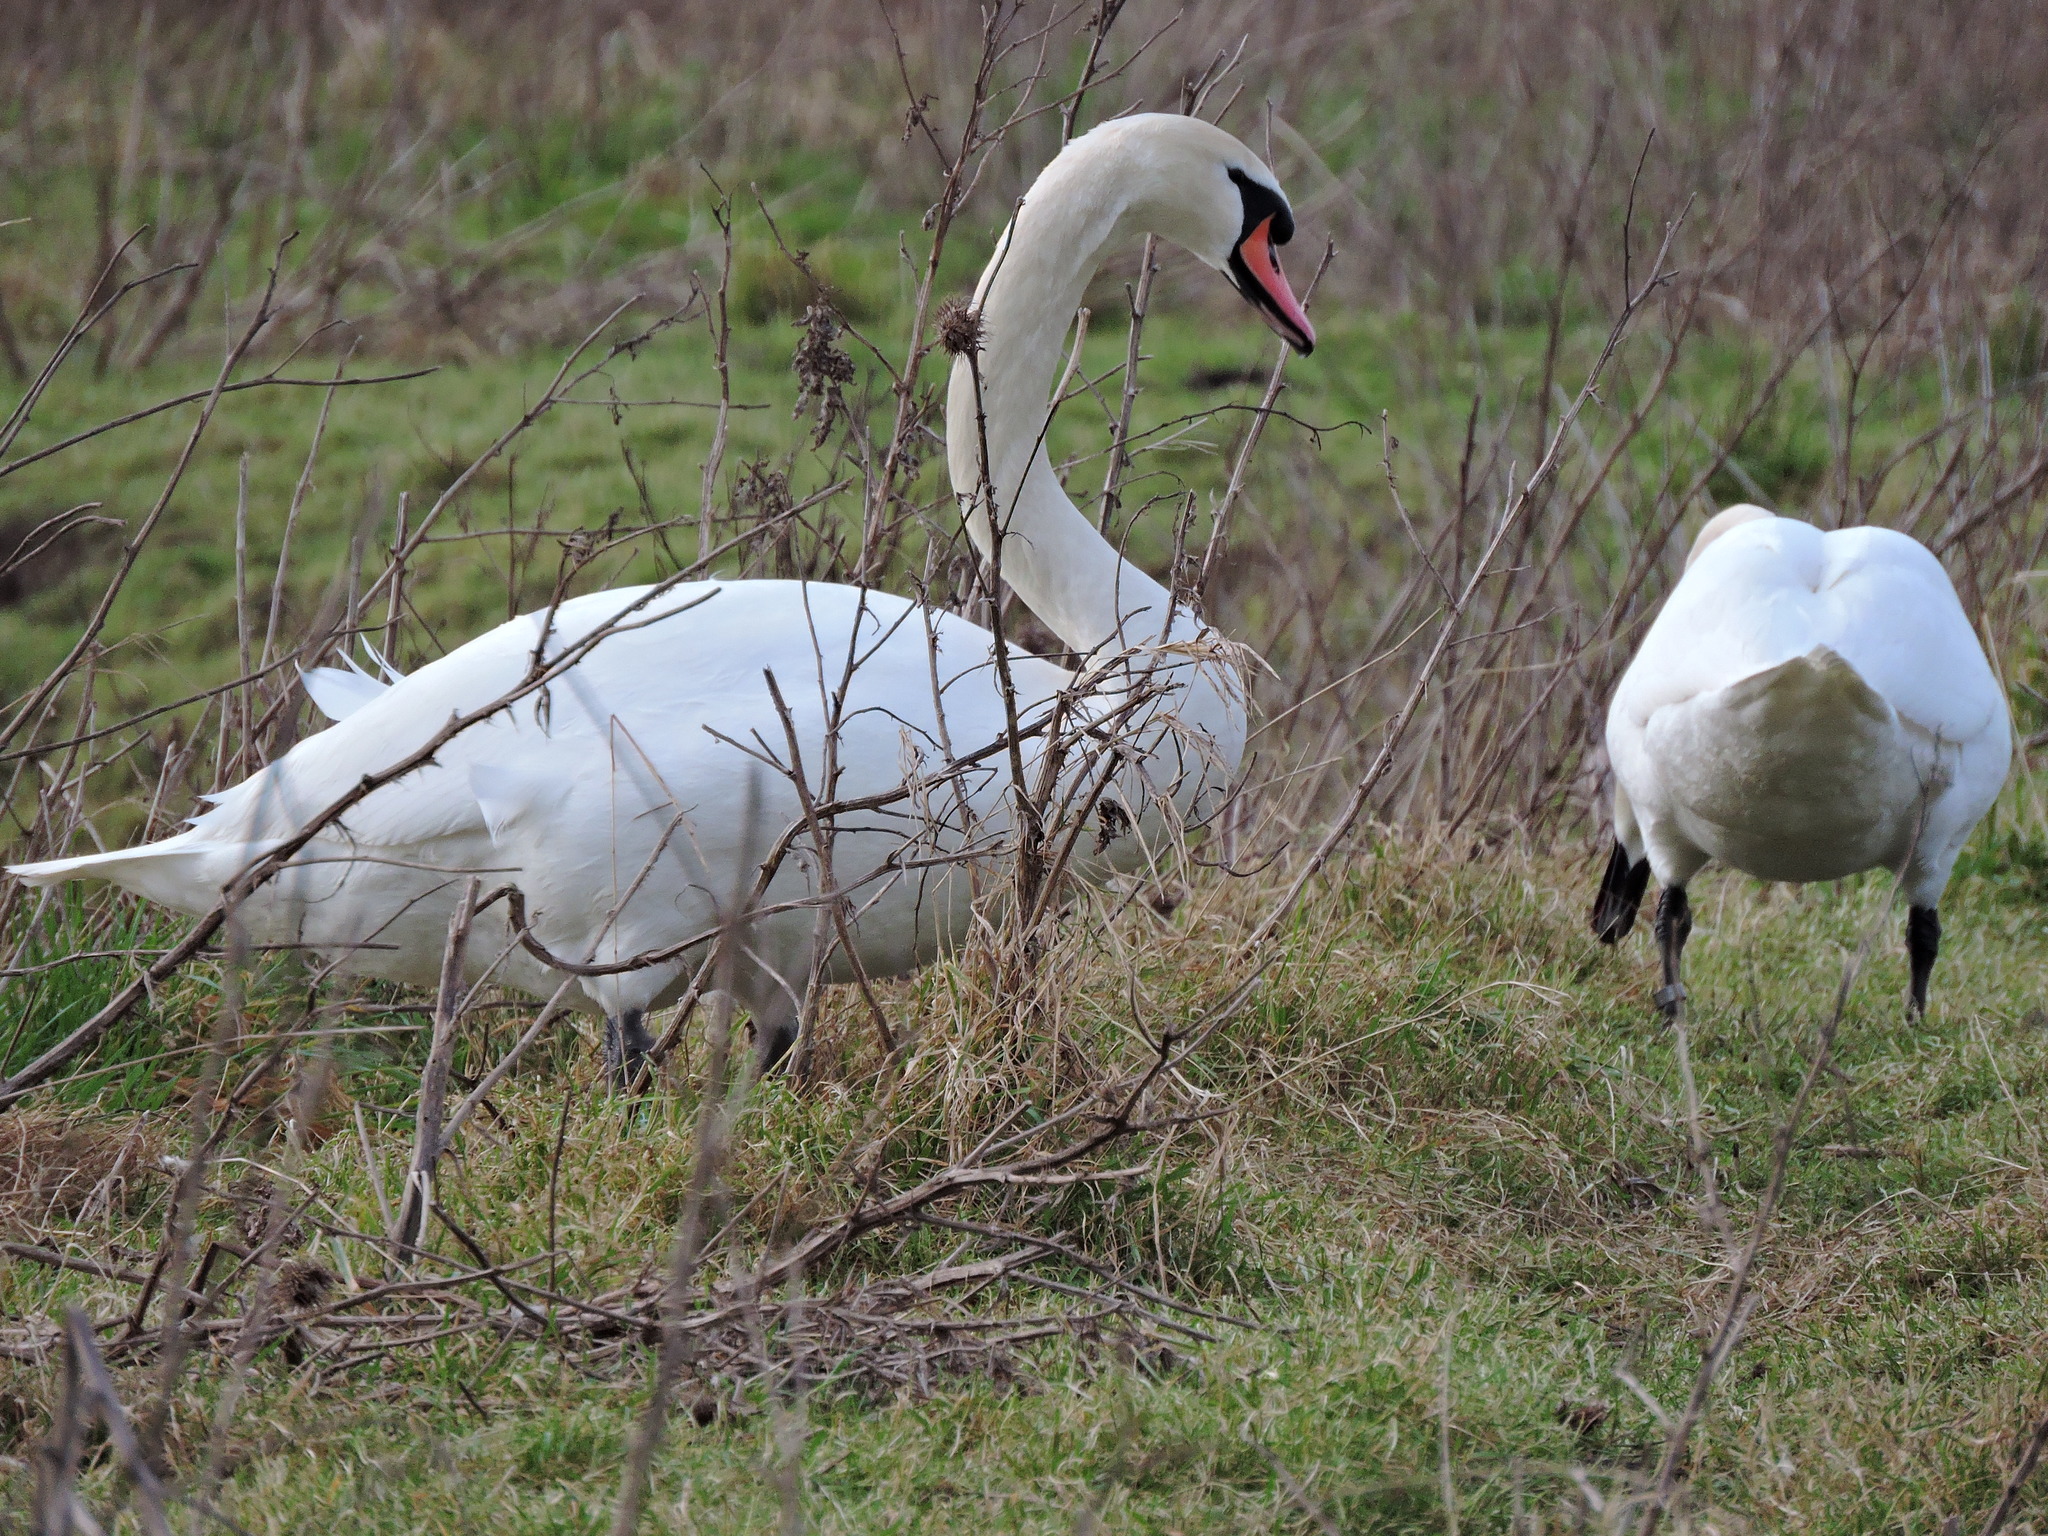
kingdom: Animalia
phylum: Chordata
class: Aves
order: Anseriformes
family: Anatidae
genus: Cygnus
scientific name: Cygnus olor
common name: Mute swan
